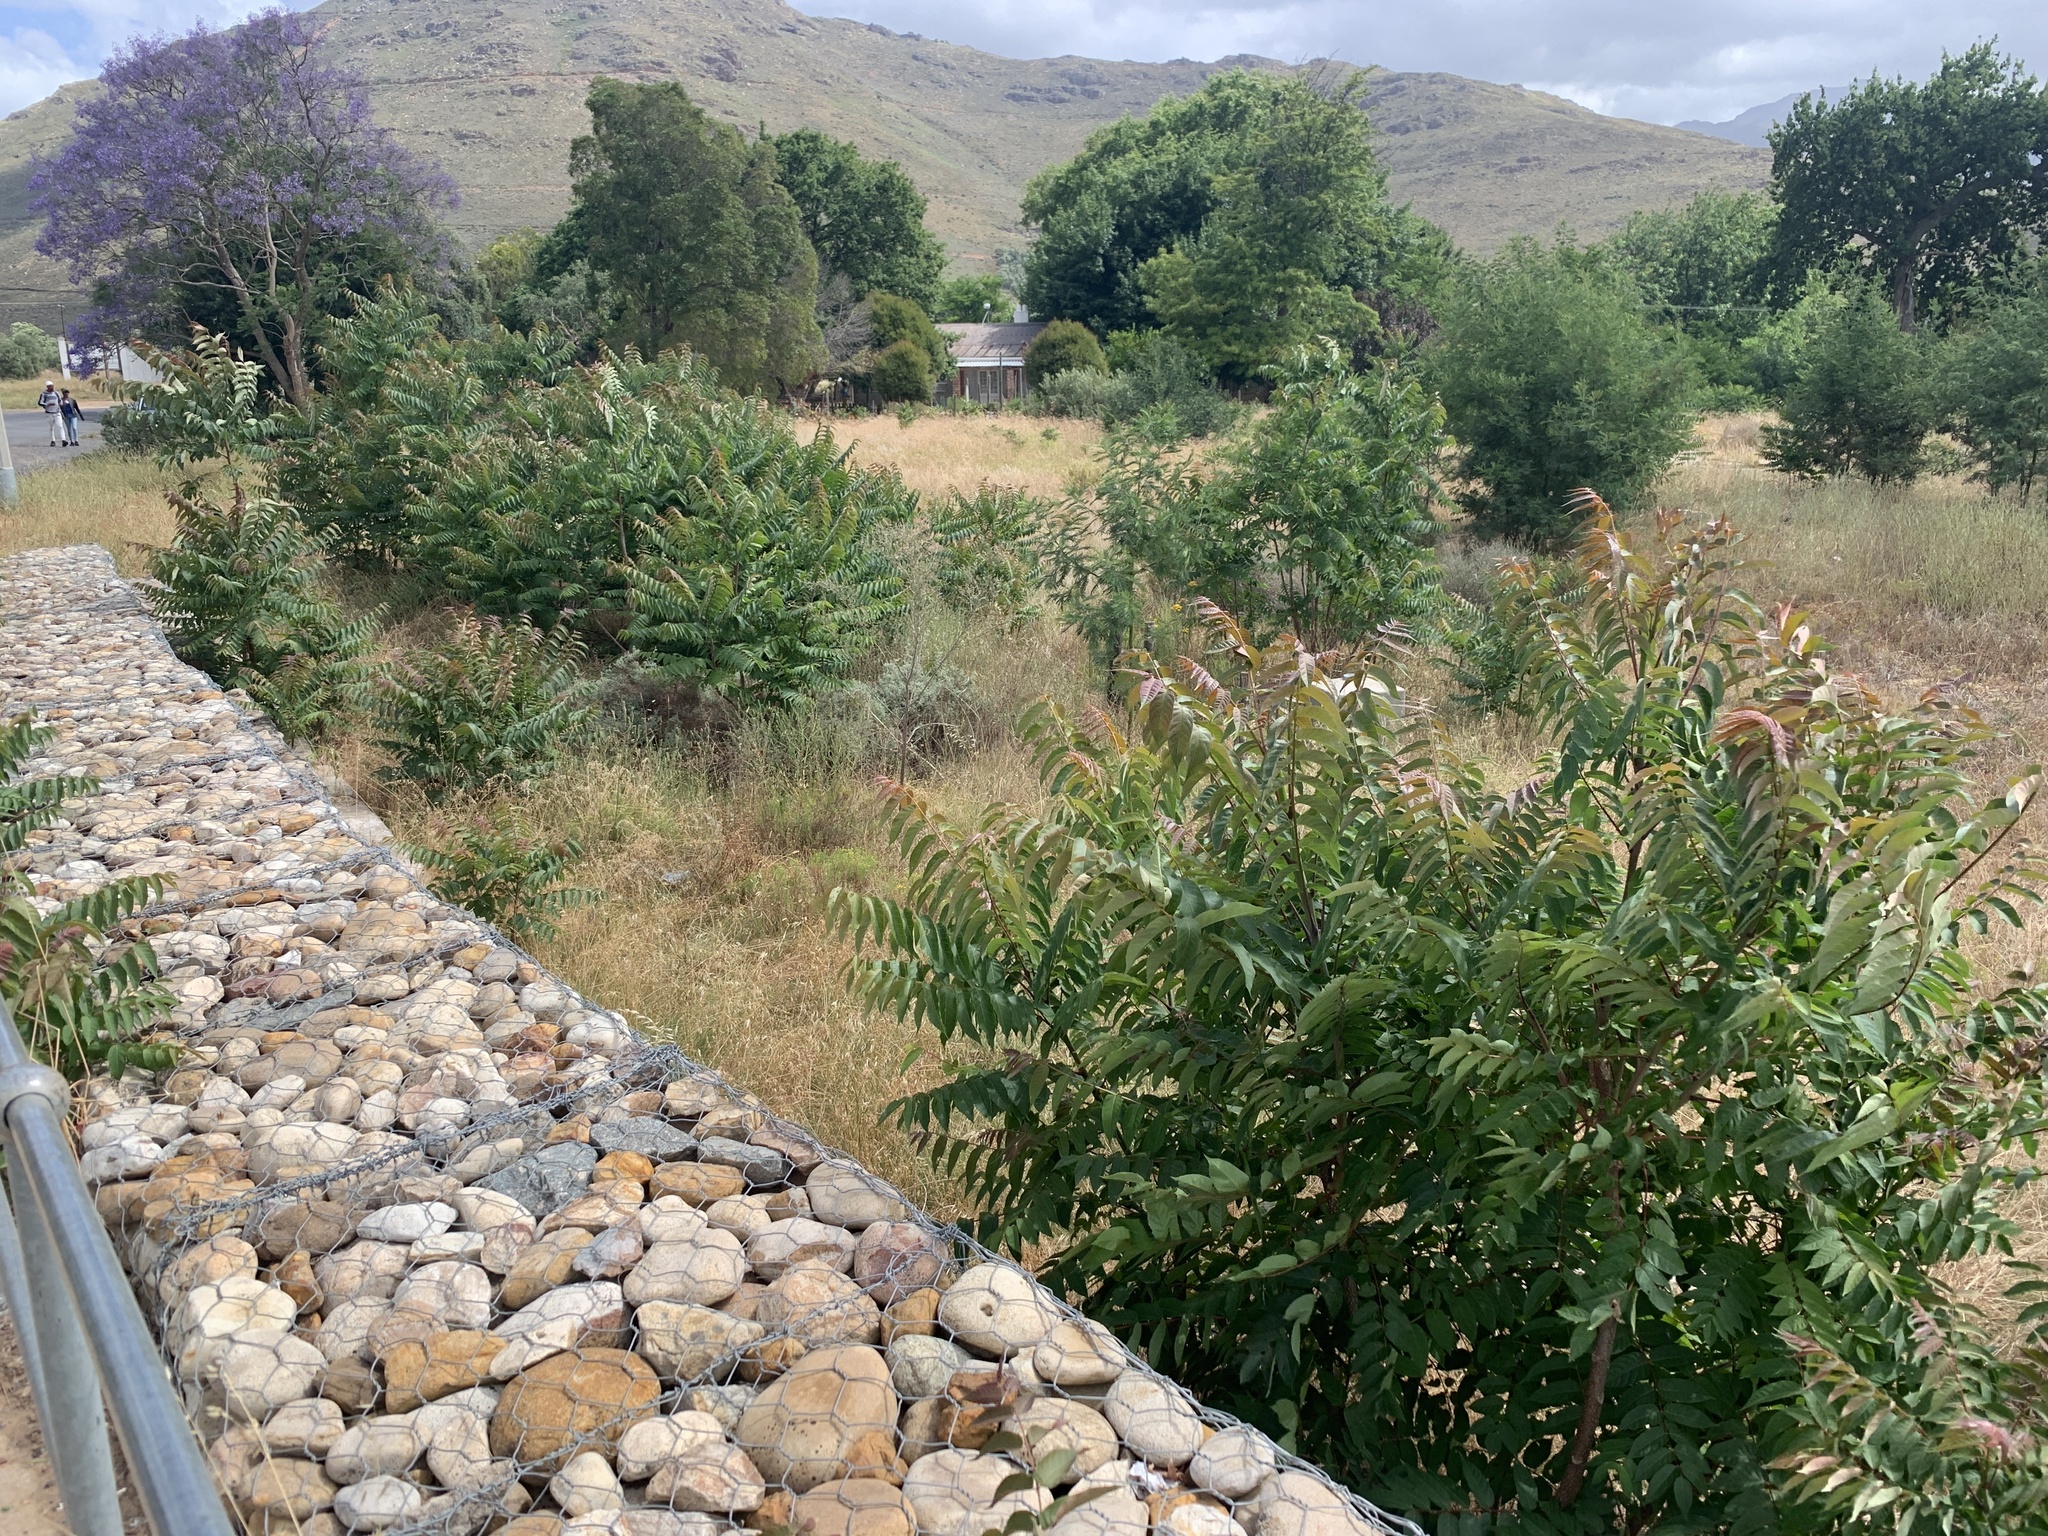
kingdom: Plantae
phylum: Tracheophyta
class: Magnoliopsida
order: Sapindales
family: Simaroubaceae
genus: Ailanthus
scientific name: Ailanthus altissima
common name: Tree-of-heaven
